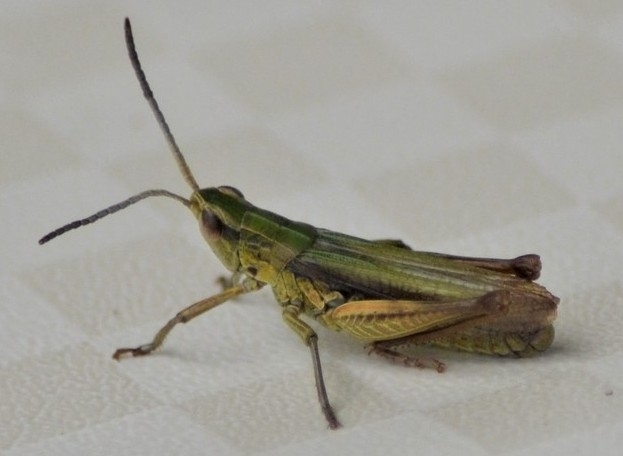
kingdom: Animalia
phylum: Arthropoda
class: Insecta
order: Orthoptera
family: Acrididae
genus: Chorthippus
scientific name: Chorthippus dorsatus
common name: Steppe grasshopper
